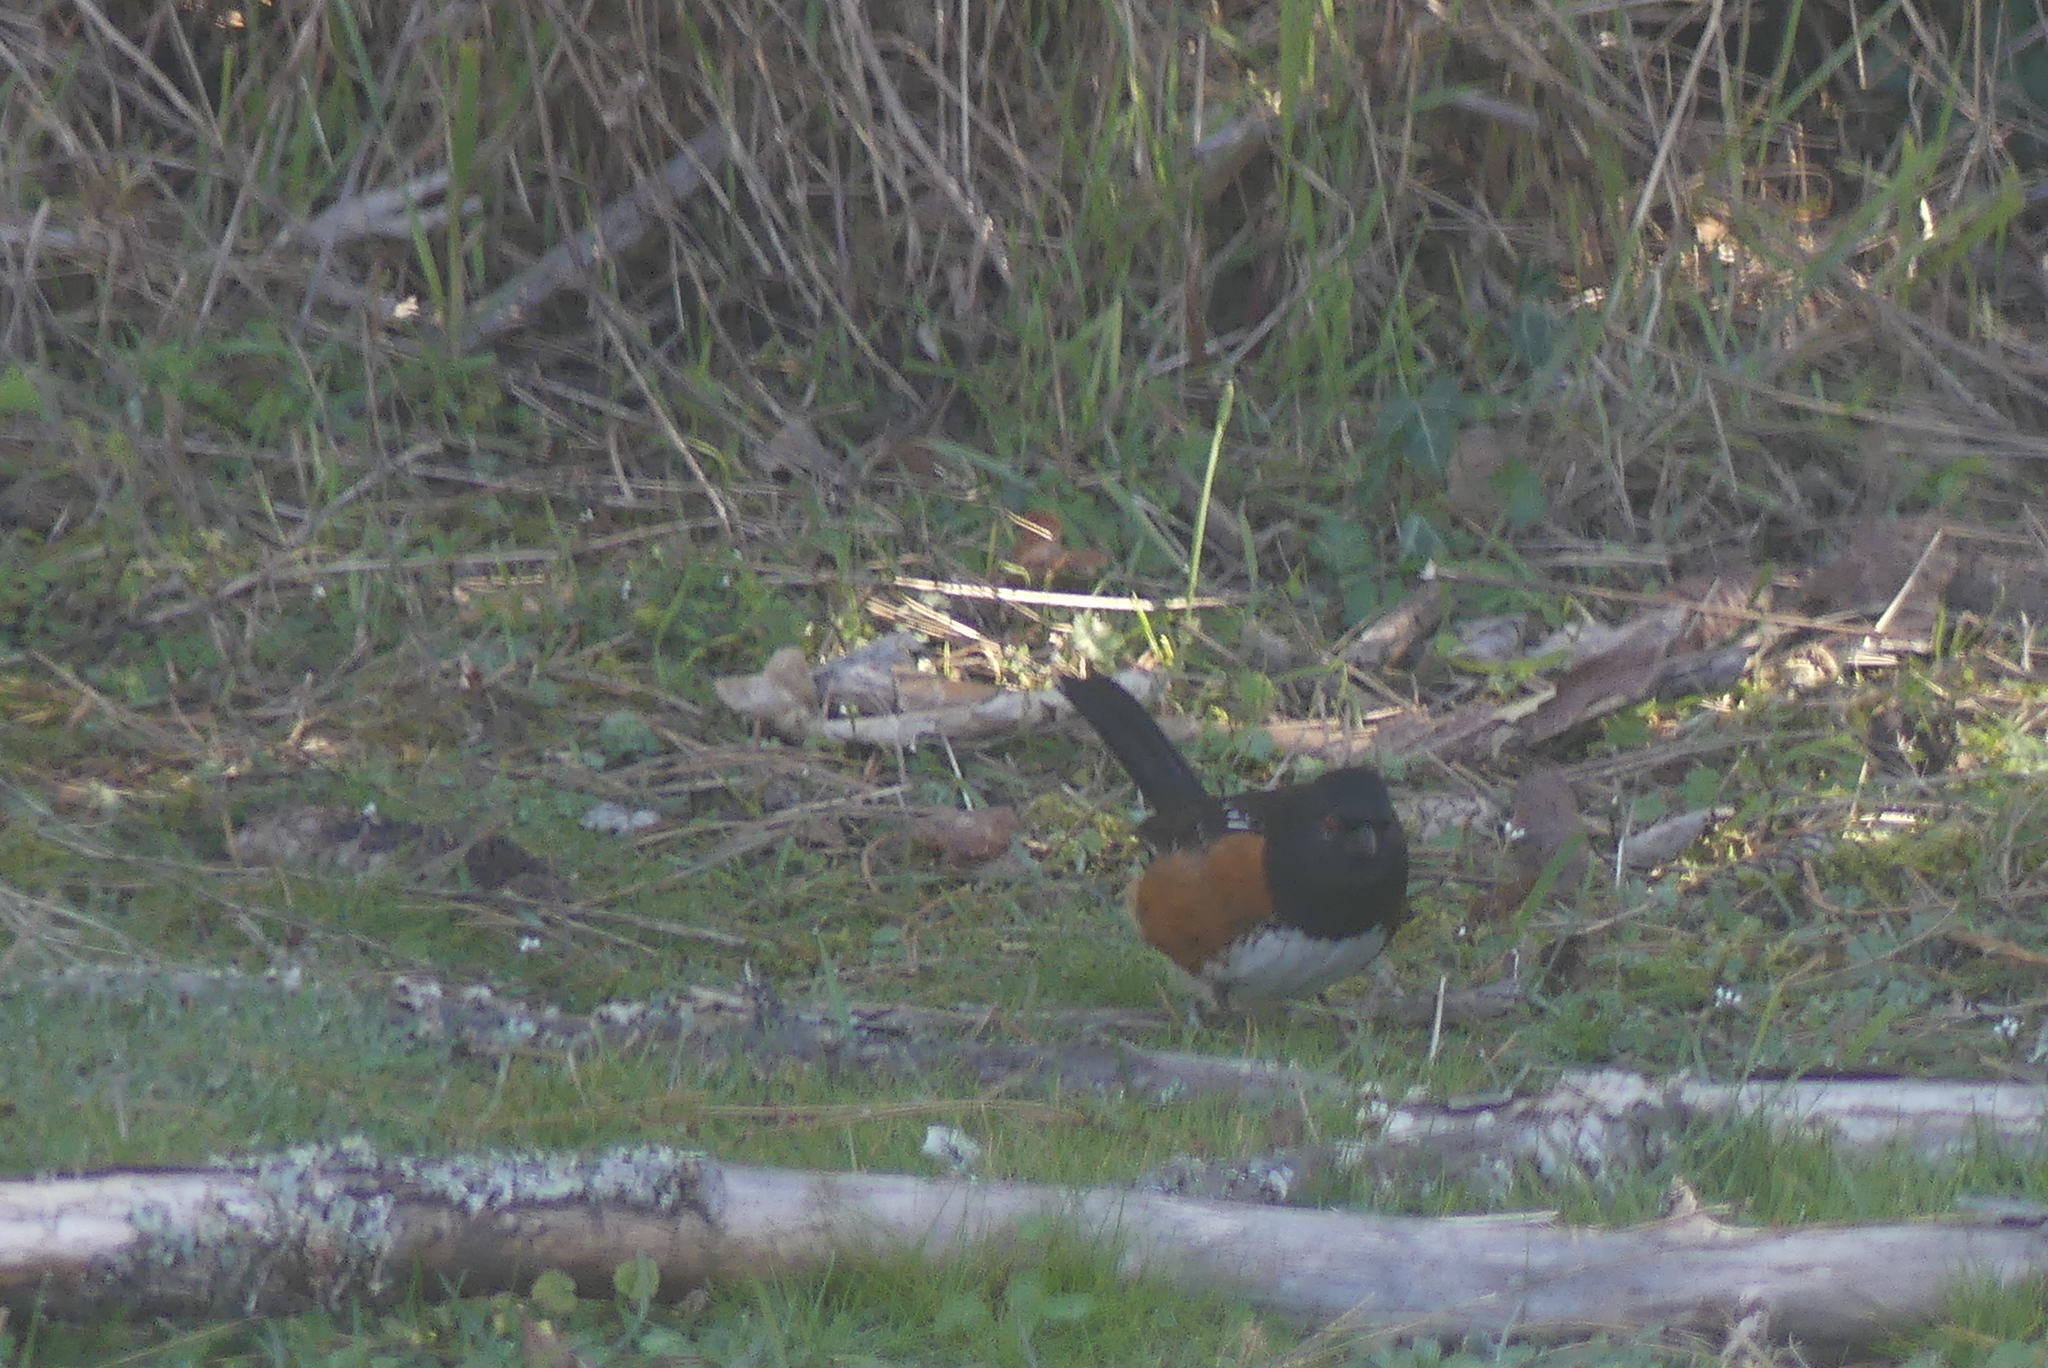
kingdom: Animalia
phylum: Chordata
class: Aves
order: Passeriformes
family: Passerellidae
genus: Pipilo
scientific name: Pipilo maculatus
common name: Spotted towhee
